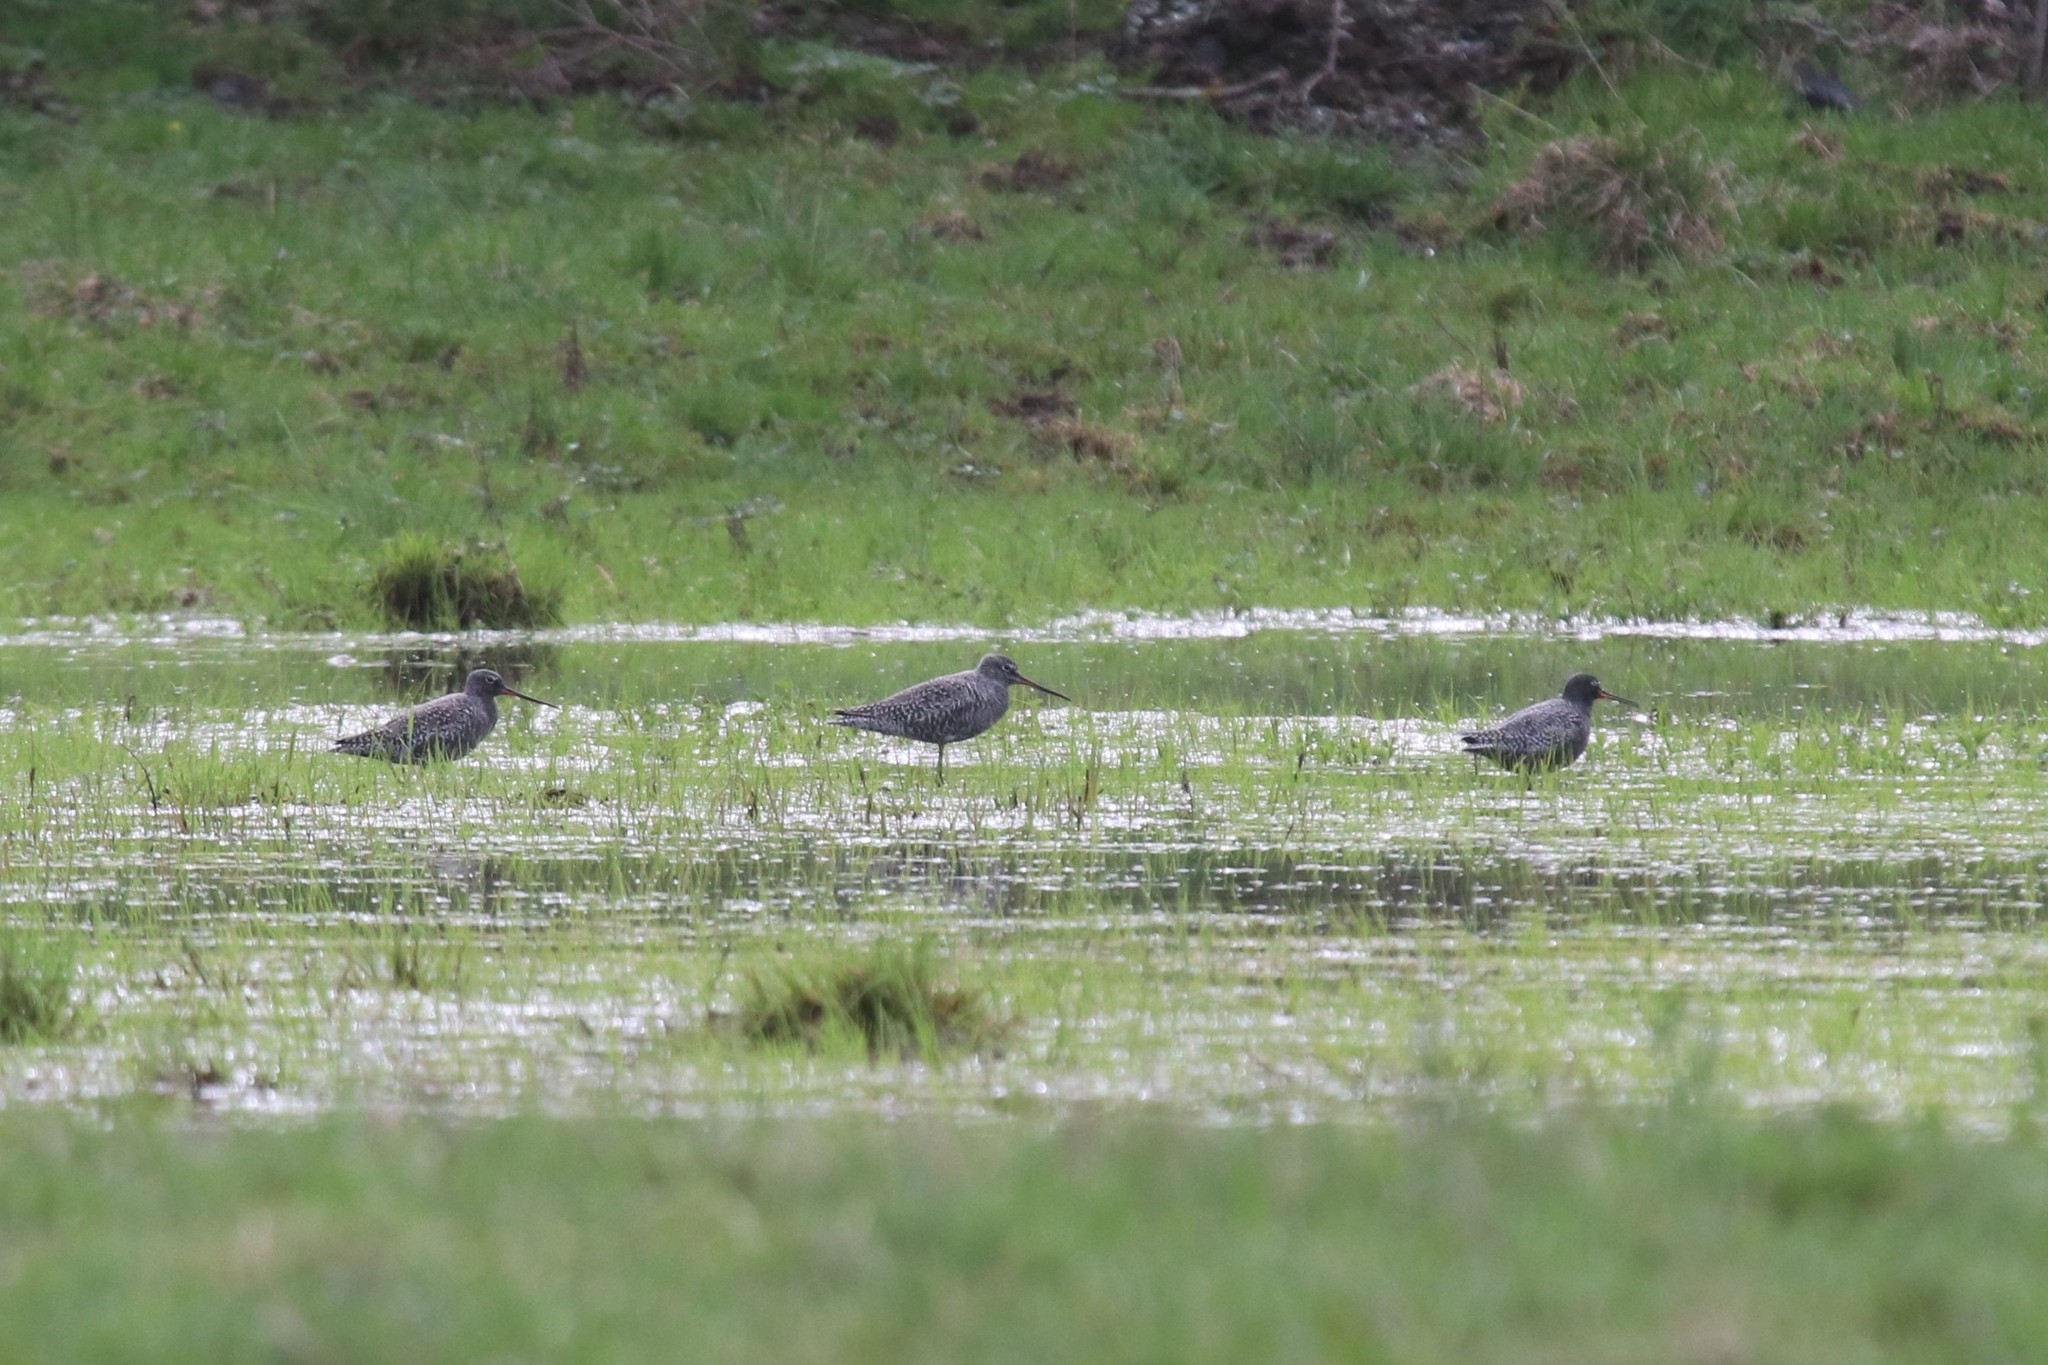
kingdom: Animalia
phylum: Chordata
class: Aves
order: Charadriiformes
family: Scolopacidae
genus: Tringa
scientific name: Tringa erythropus
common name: Spotted redshank
